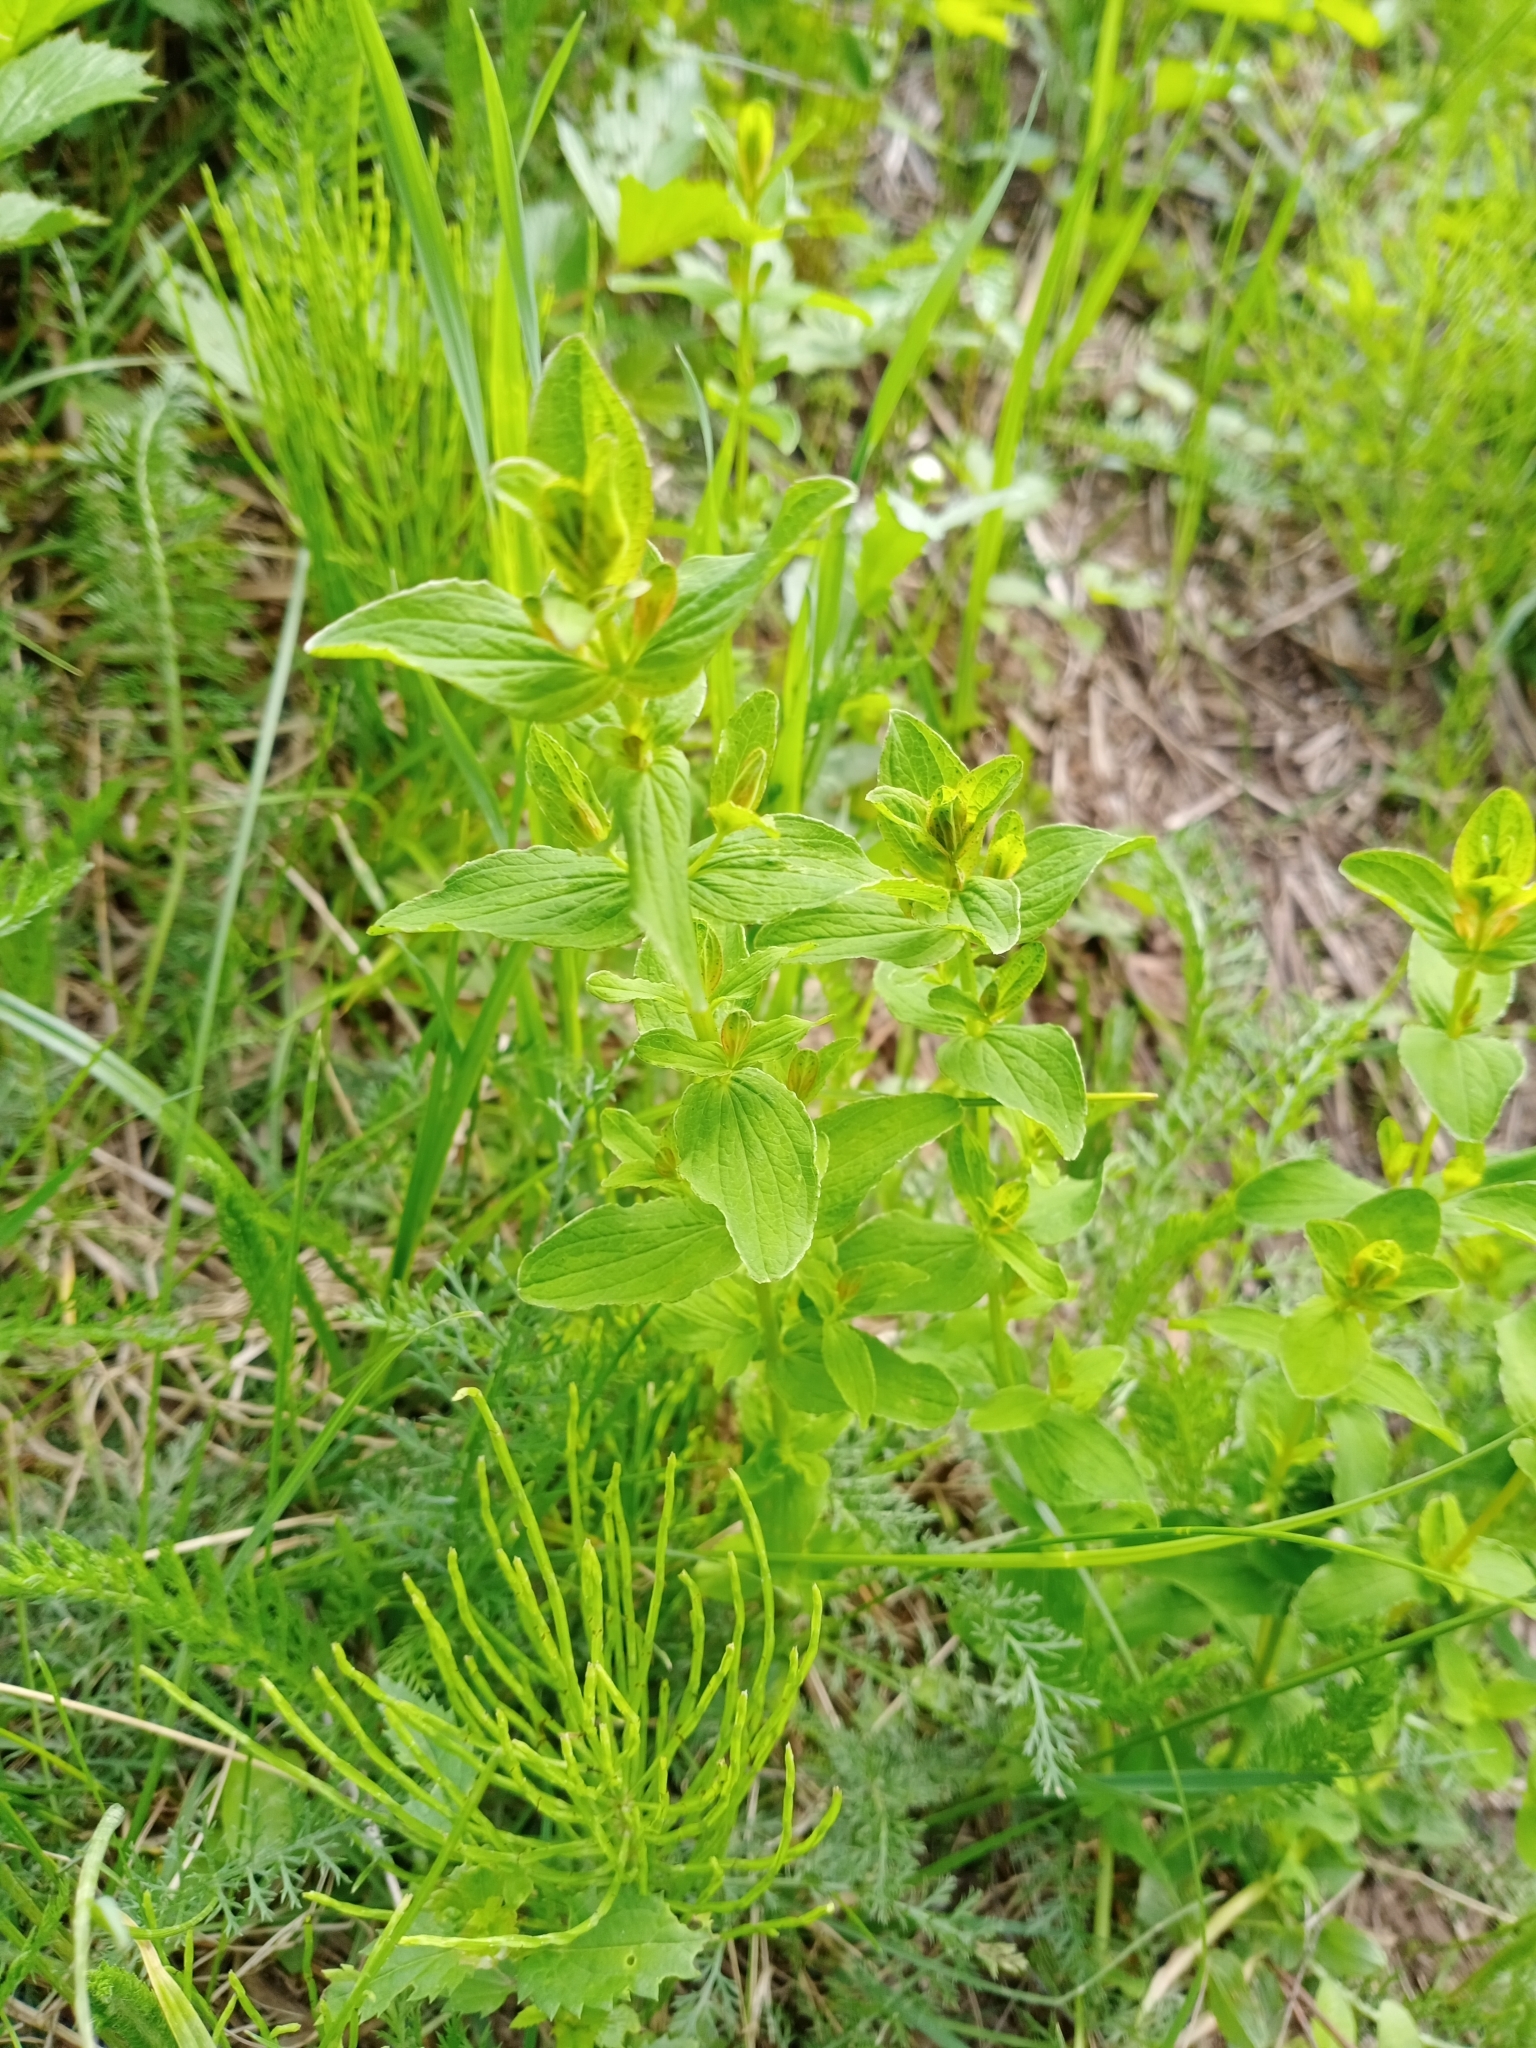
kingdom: Plantae
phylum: Tracheophyta
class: Magnoliopsida
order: Malpighiales
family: Hypericaceae
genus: Hypericum
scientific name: Hypericum maculatum
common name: Imperforate st. john's-wort
